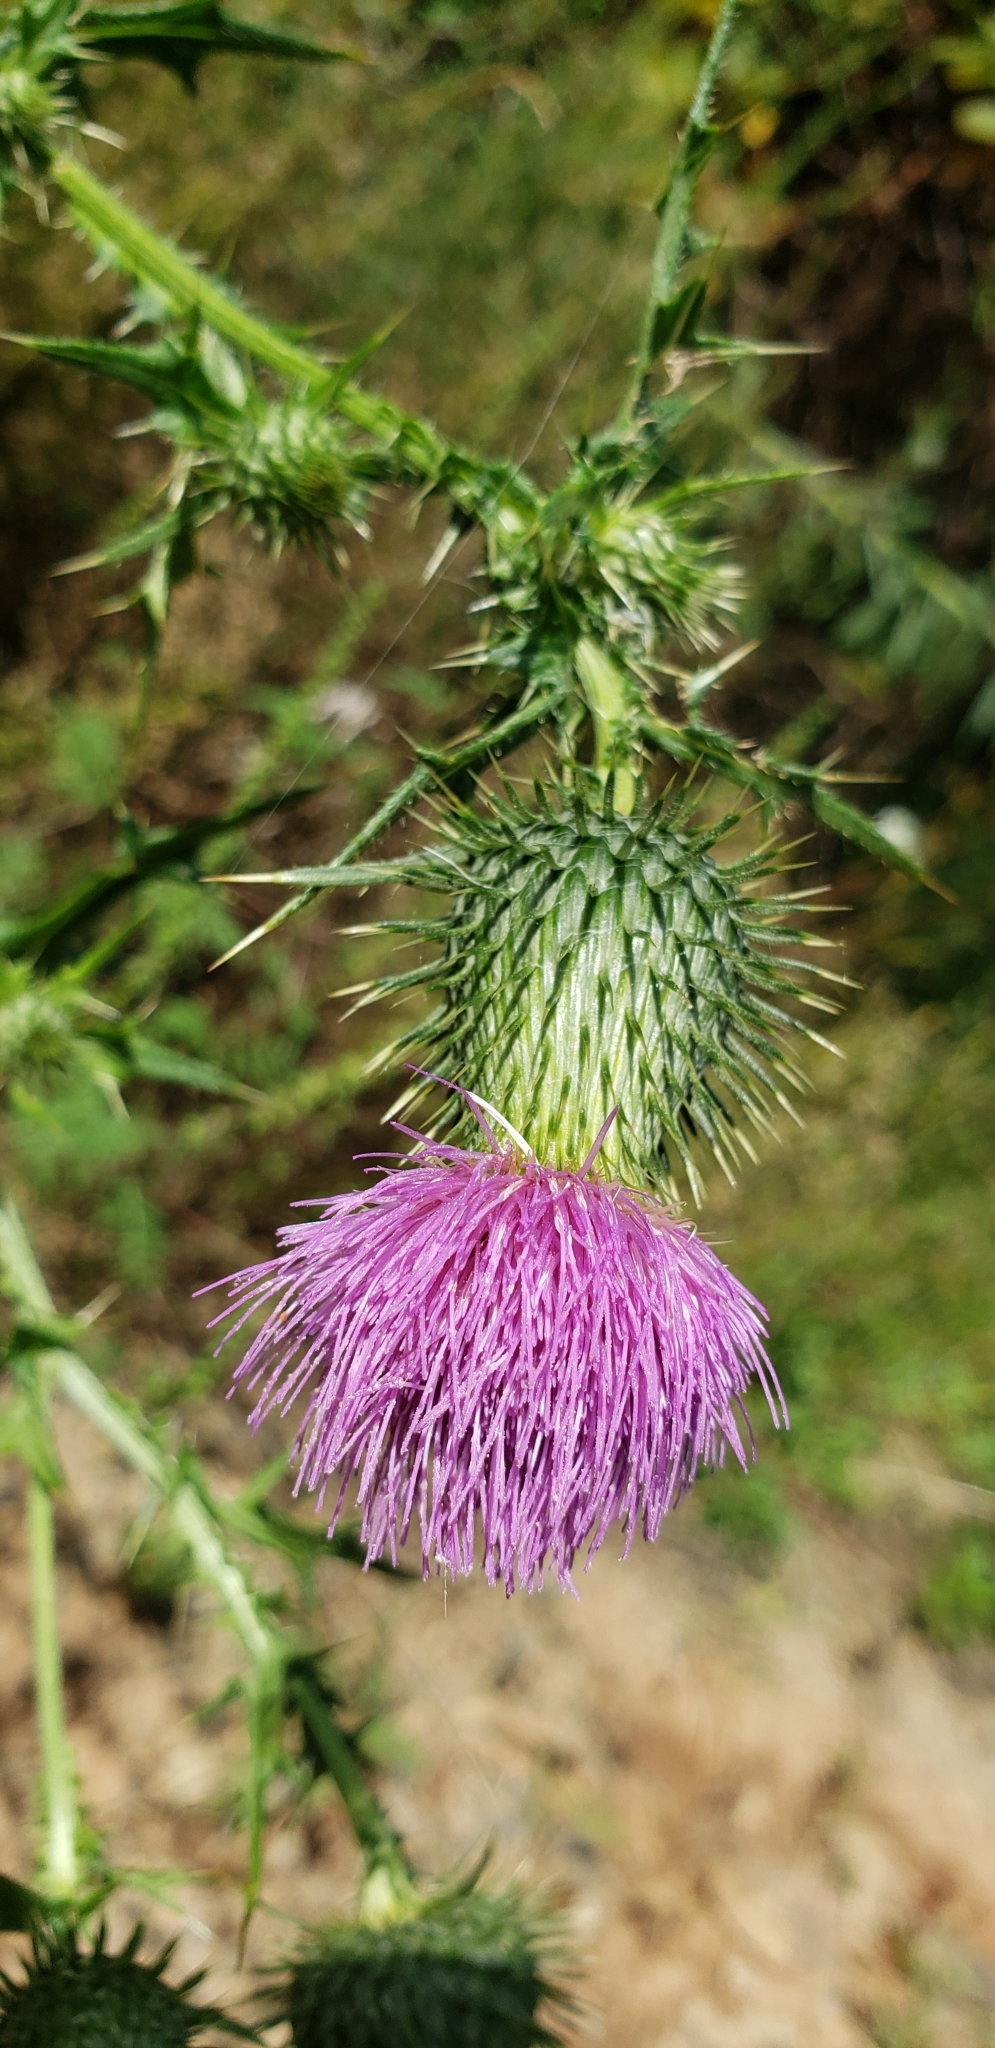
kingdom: Plantae
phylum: Tracheophyta
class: Magnoliopsida
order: Asterales
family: Asteraceae
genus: Cirsium
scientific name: Cirsium vulgare
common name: Bull thistle
